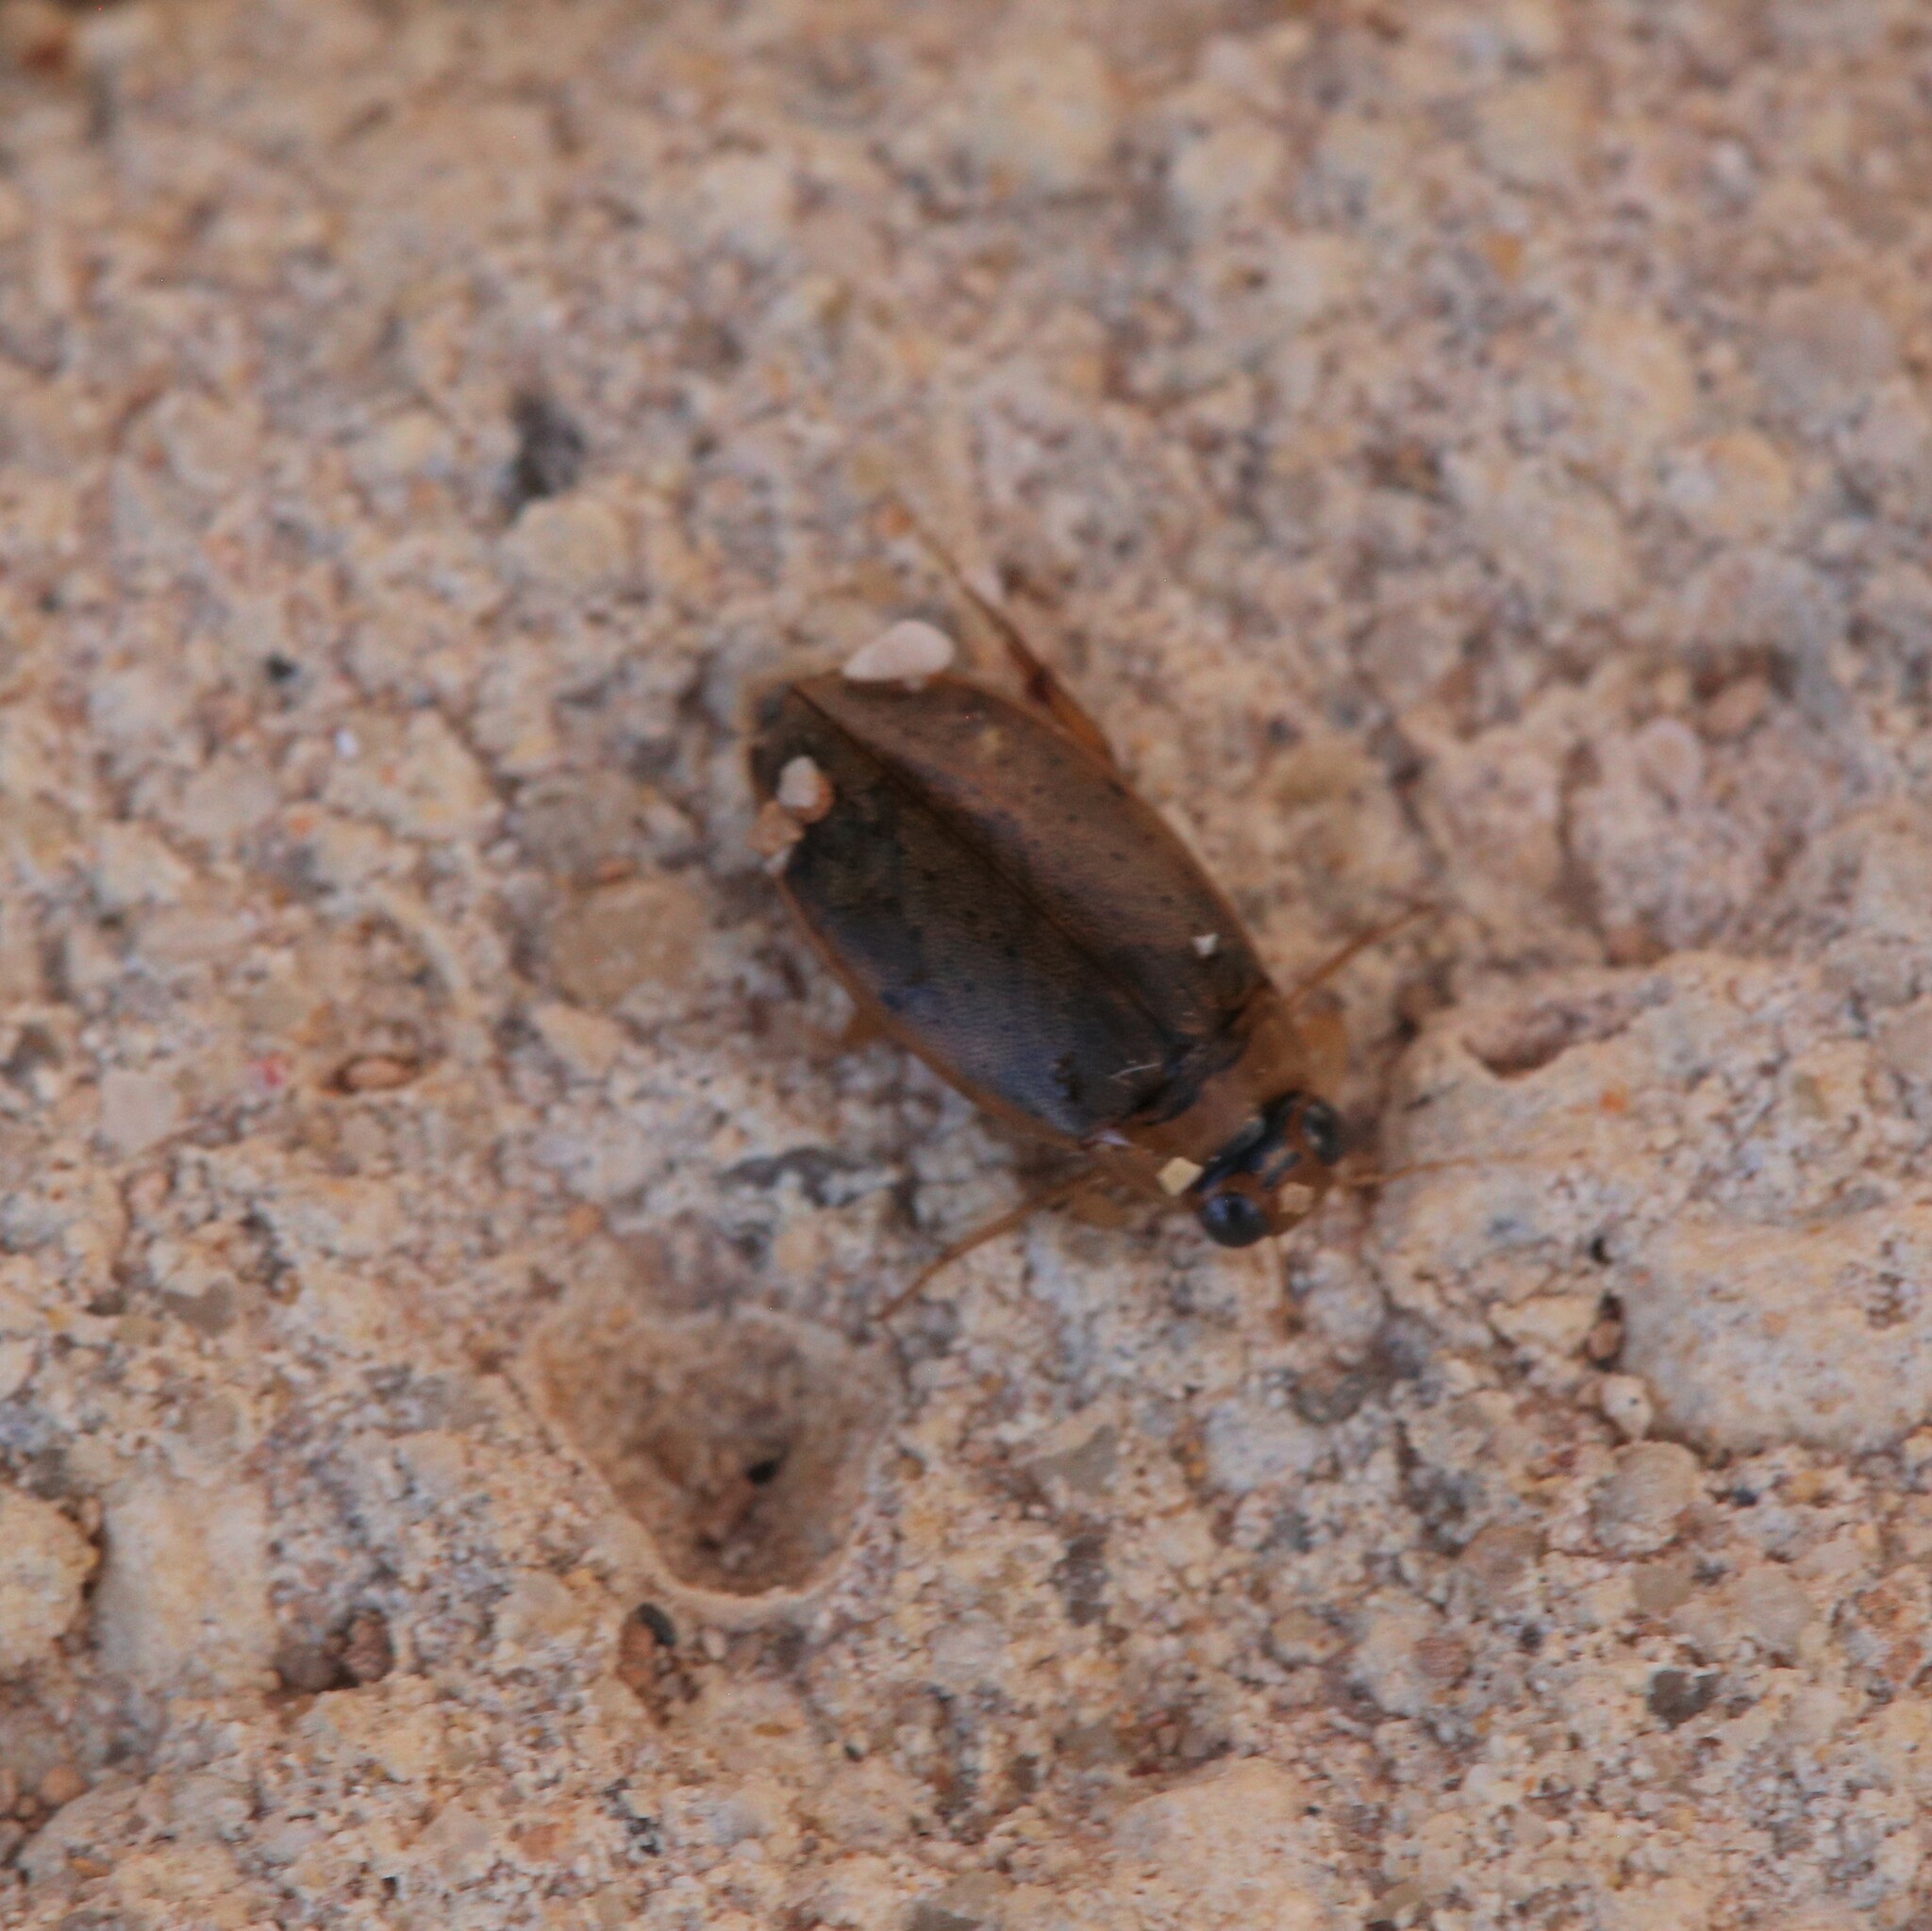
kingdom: Animalia
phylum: Arthropoda
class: Insecta
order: Coleoptera
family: Dytiscidae
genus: Eretes
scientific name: Eretes australis
